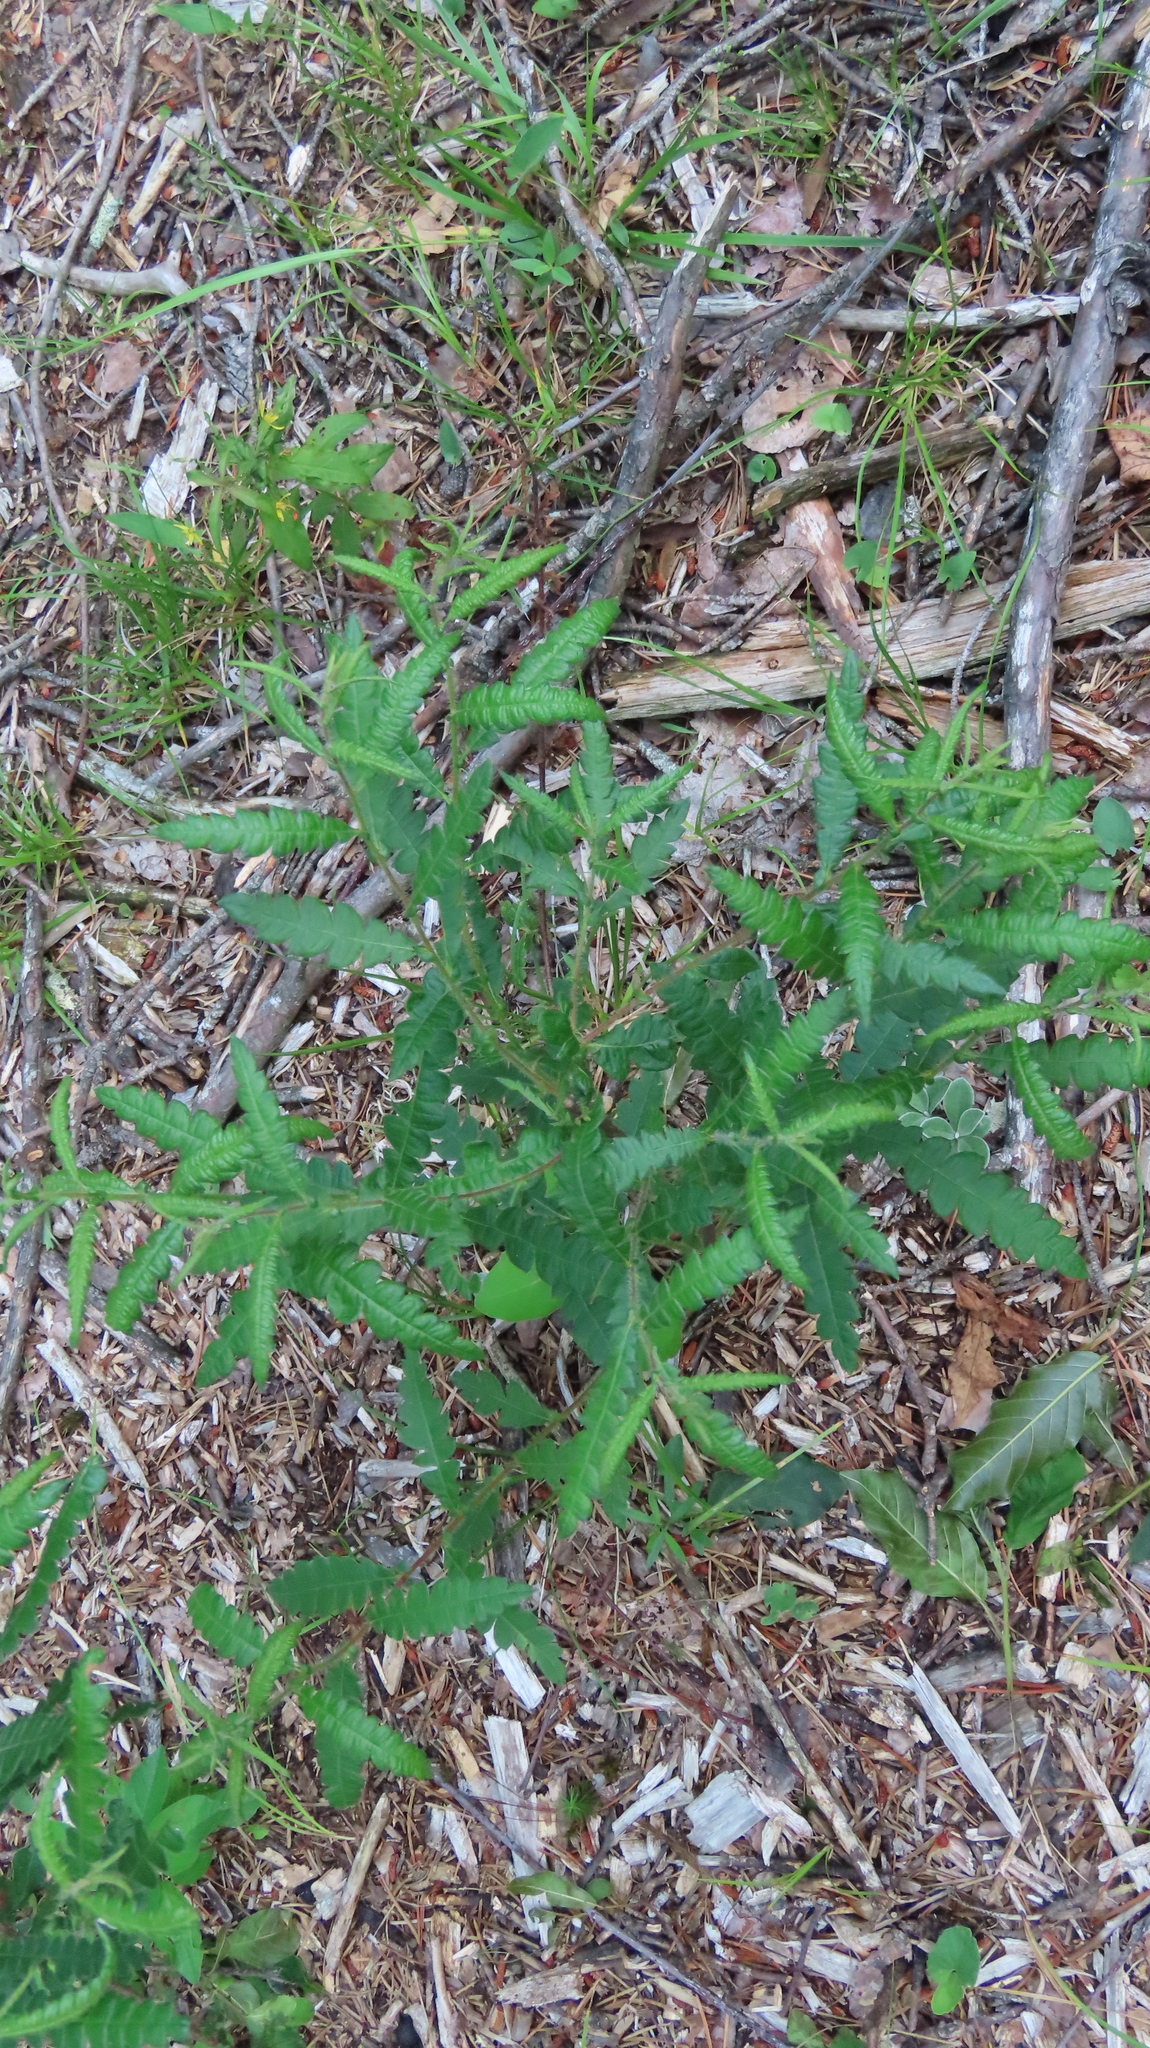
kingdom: Plantae
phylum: Tracheophyta
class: Magnoliopsida
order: Fagales
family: Myricaceae
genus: Comptonia
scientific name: Comptonia peregrina
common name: Sweet-fern
